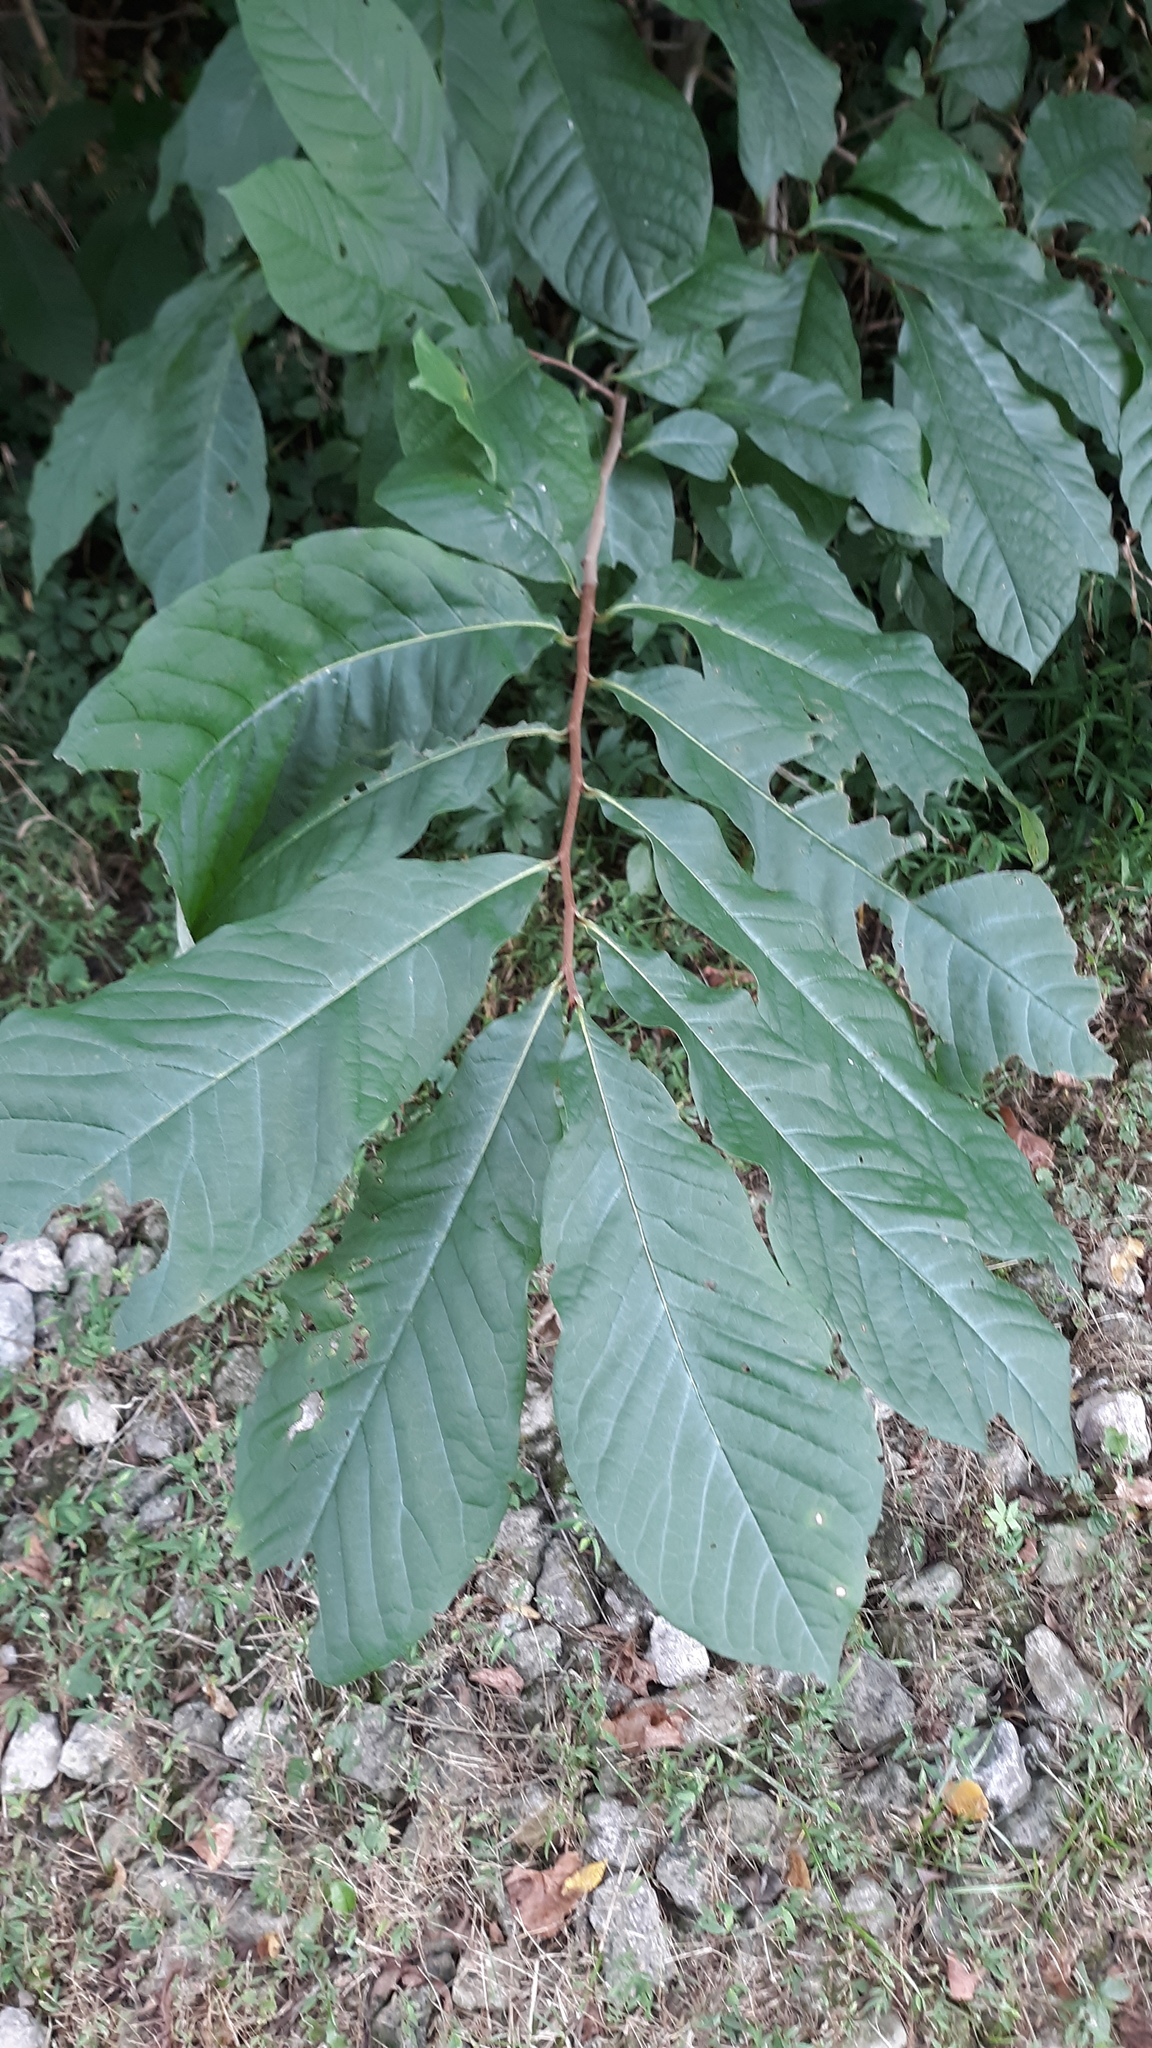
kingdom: Plantae
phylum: Tracheophyta
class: Magnoliopsida
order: Magnoliales
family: Annonaceae
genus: Asimina
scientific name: Asimina triloba
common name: Dog-banana
